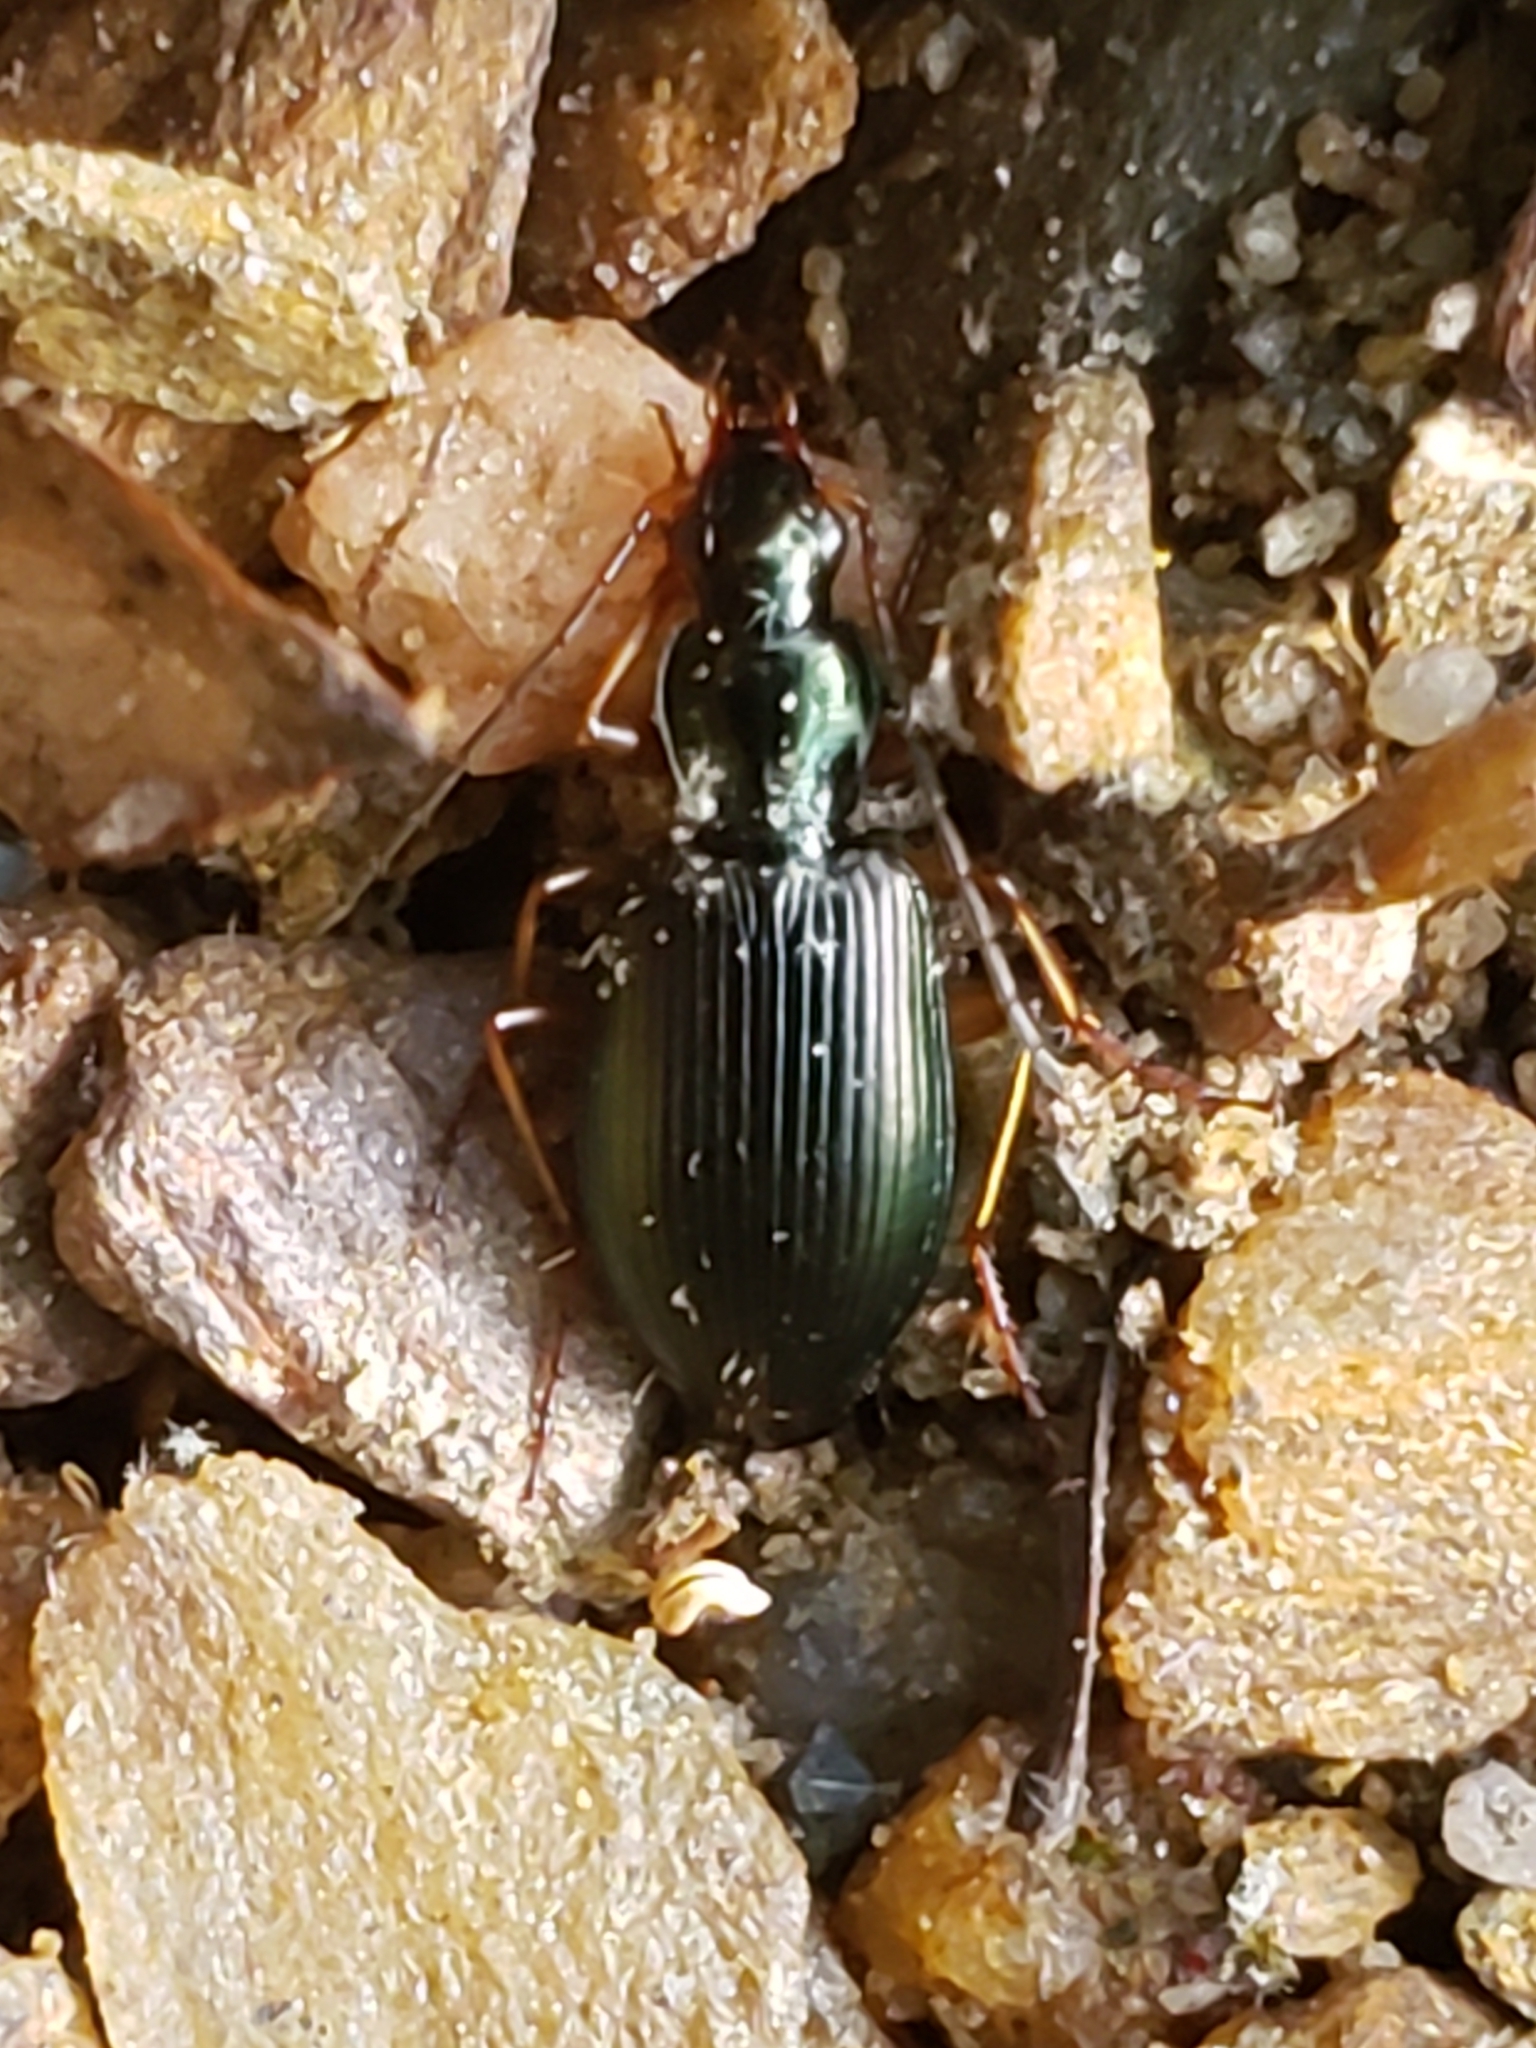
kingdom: Animalia
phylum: Arthropoda
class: Insecta
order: Coleoptera
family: Carabidae
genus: Agonum
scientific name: Agonum extensicolle
